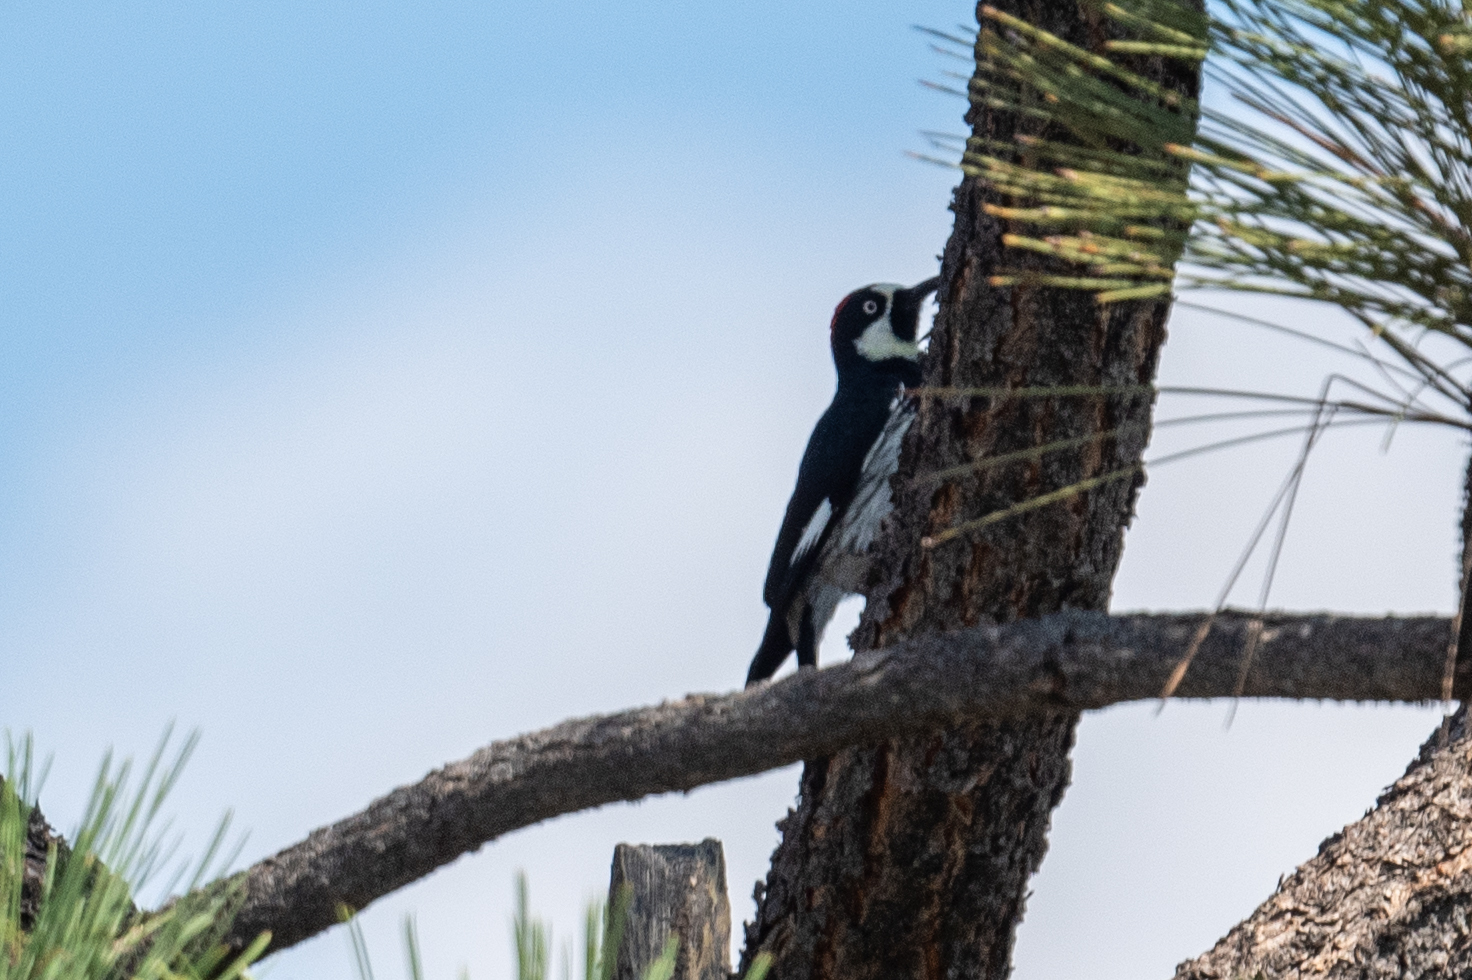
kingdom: Animalia
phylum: Chordata
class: Aves
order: Piciformes
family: Picidae
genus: Melanerpes
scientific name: Melanerpes formicivorus
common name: Acorn woodpecker
